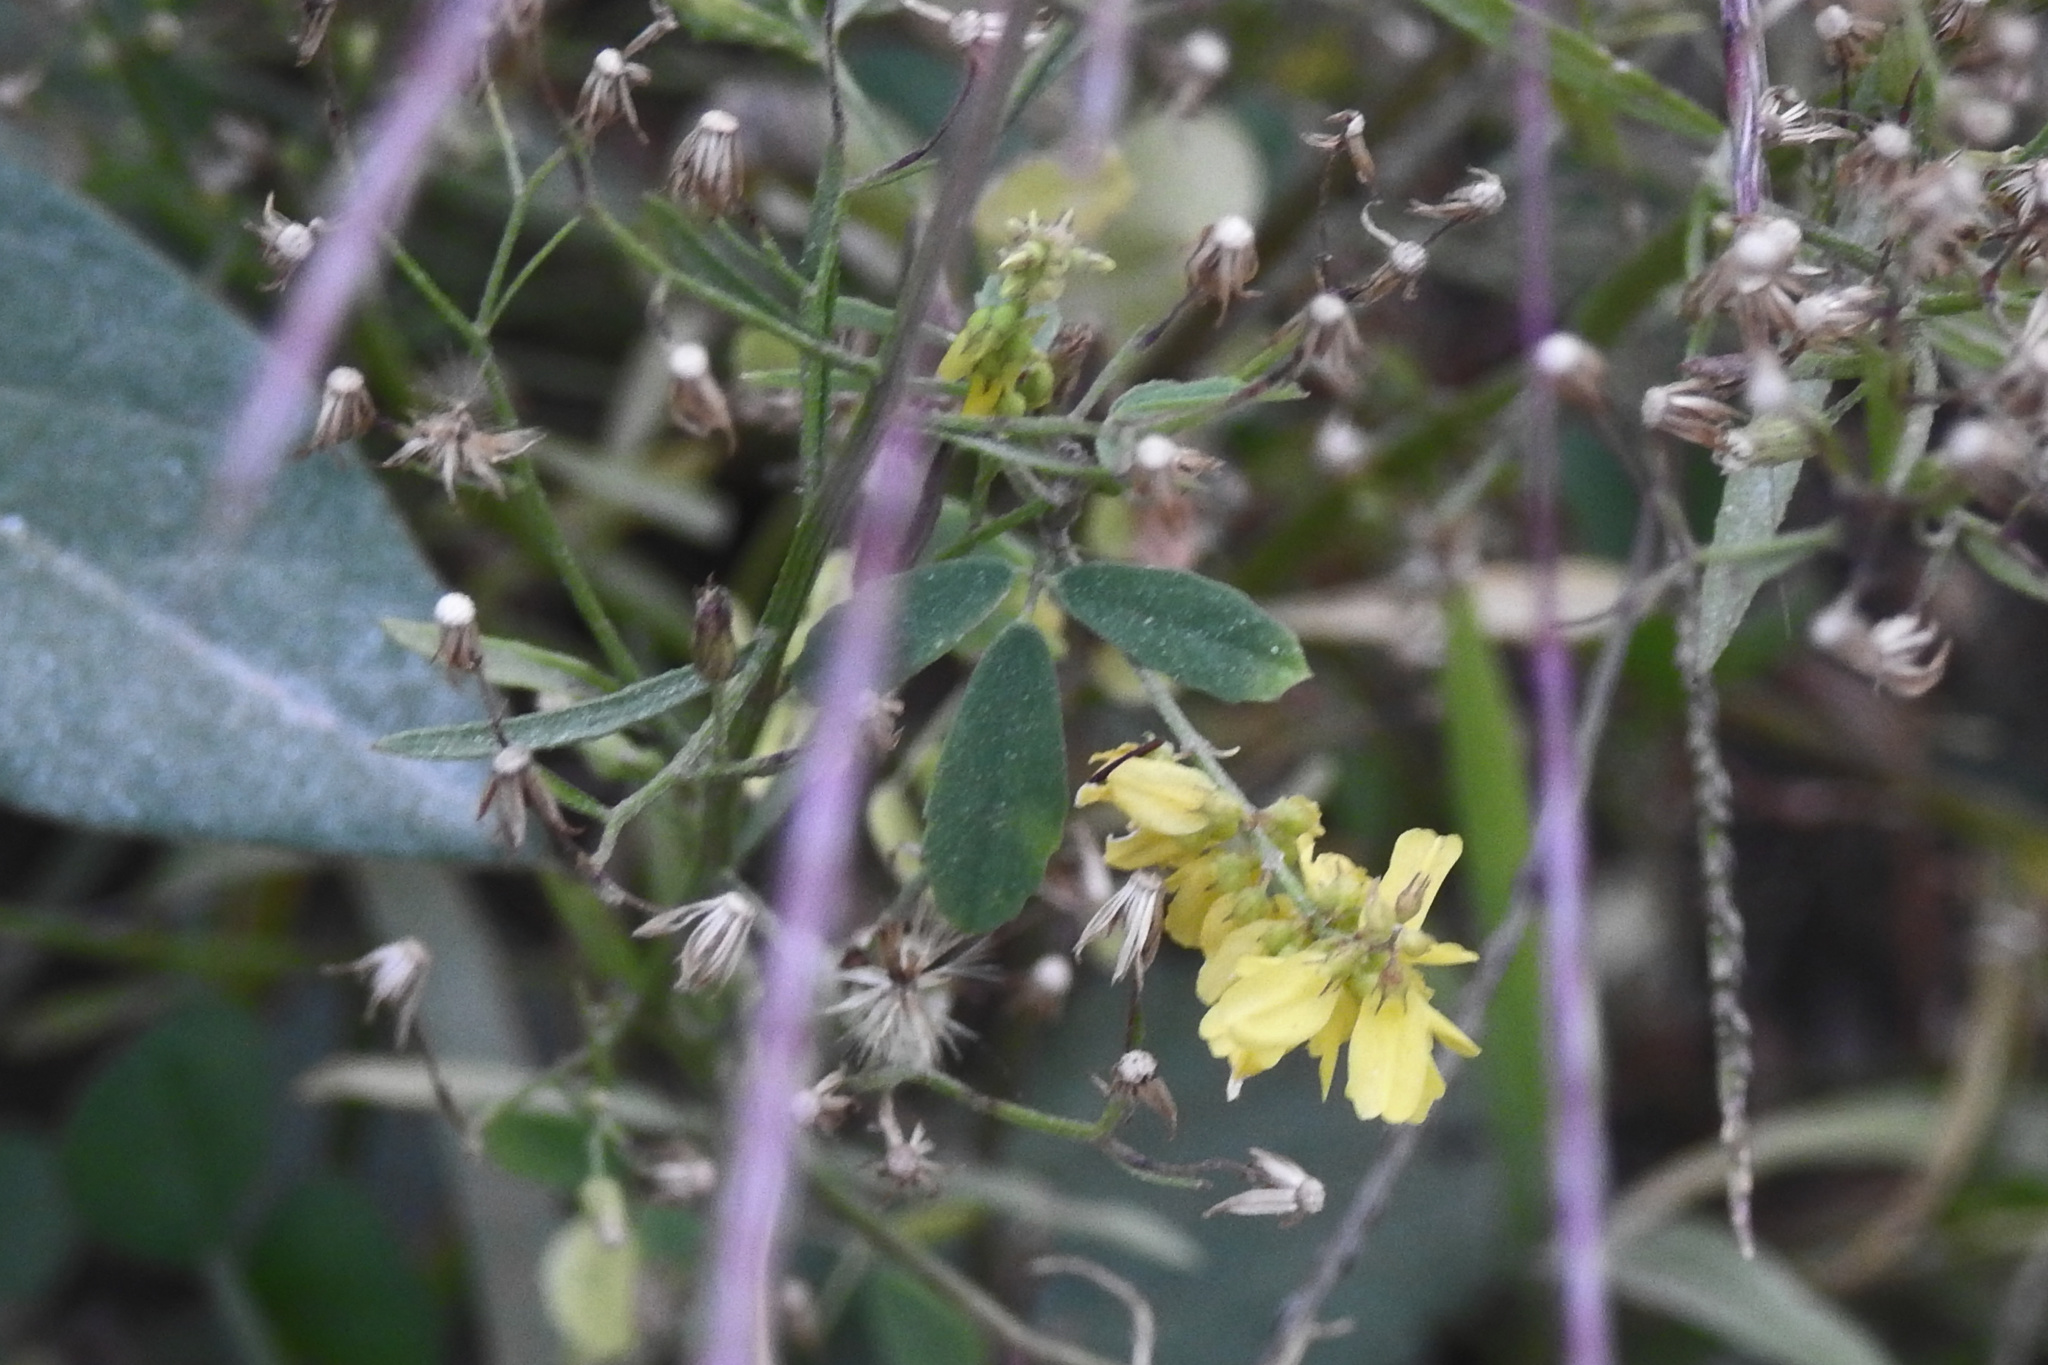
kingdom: Plantae
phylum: Tracheophyta
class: Magnoliopsida
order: Fabales
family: Fabaceae
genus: Melilotus
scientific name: Melilotus officinalis
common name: Sweetclover
